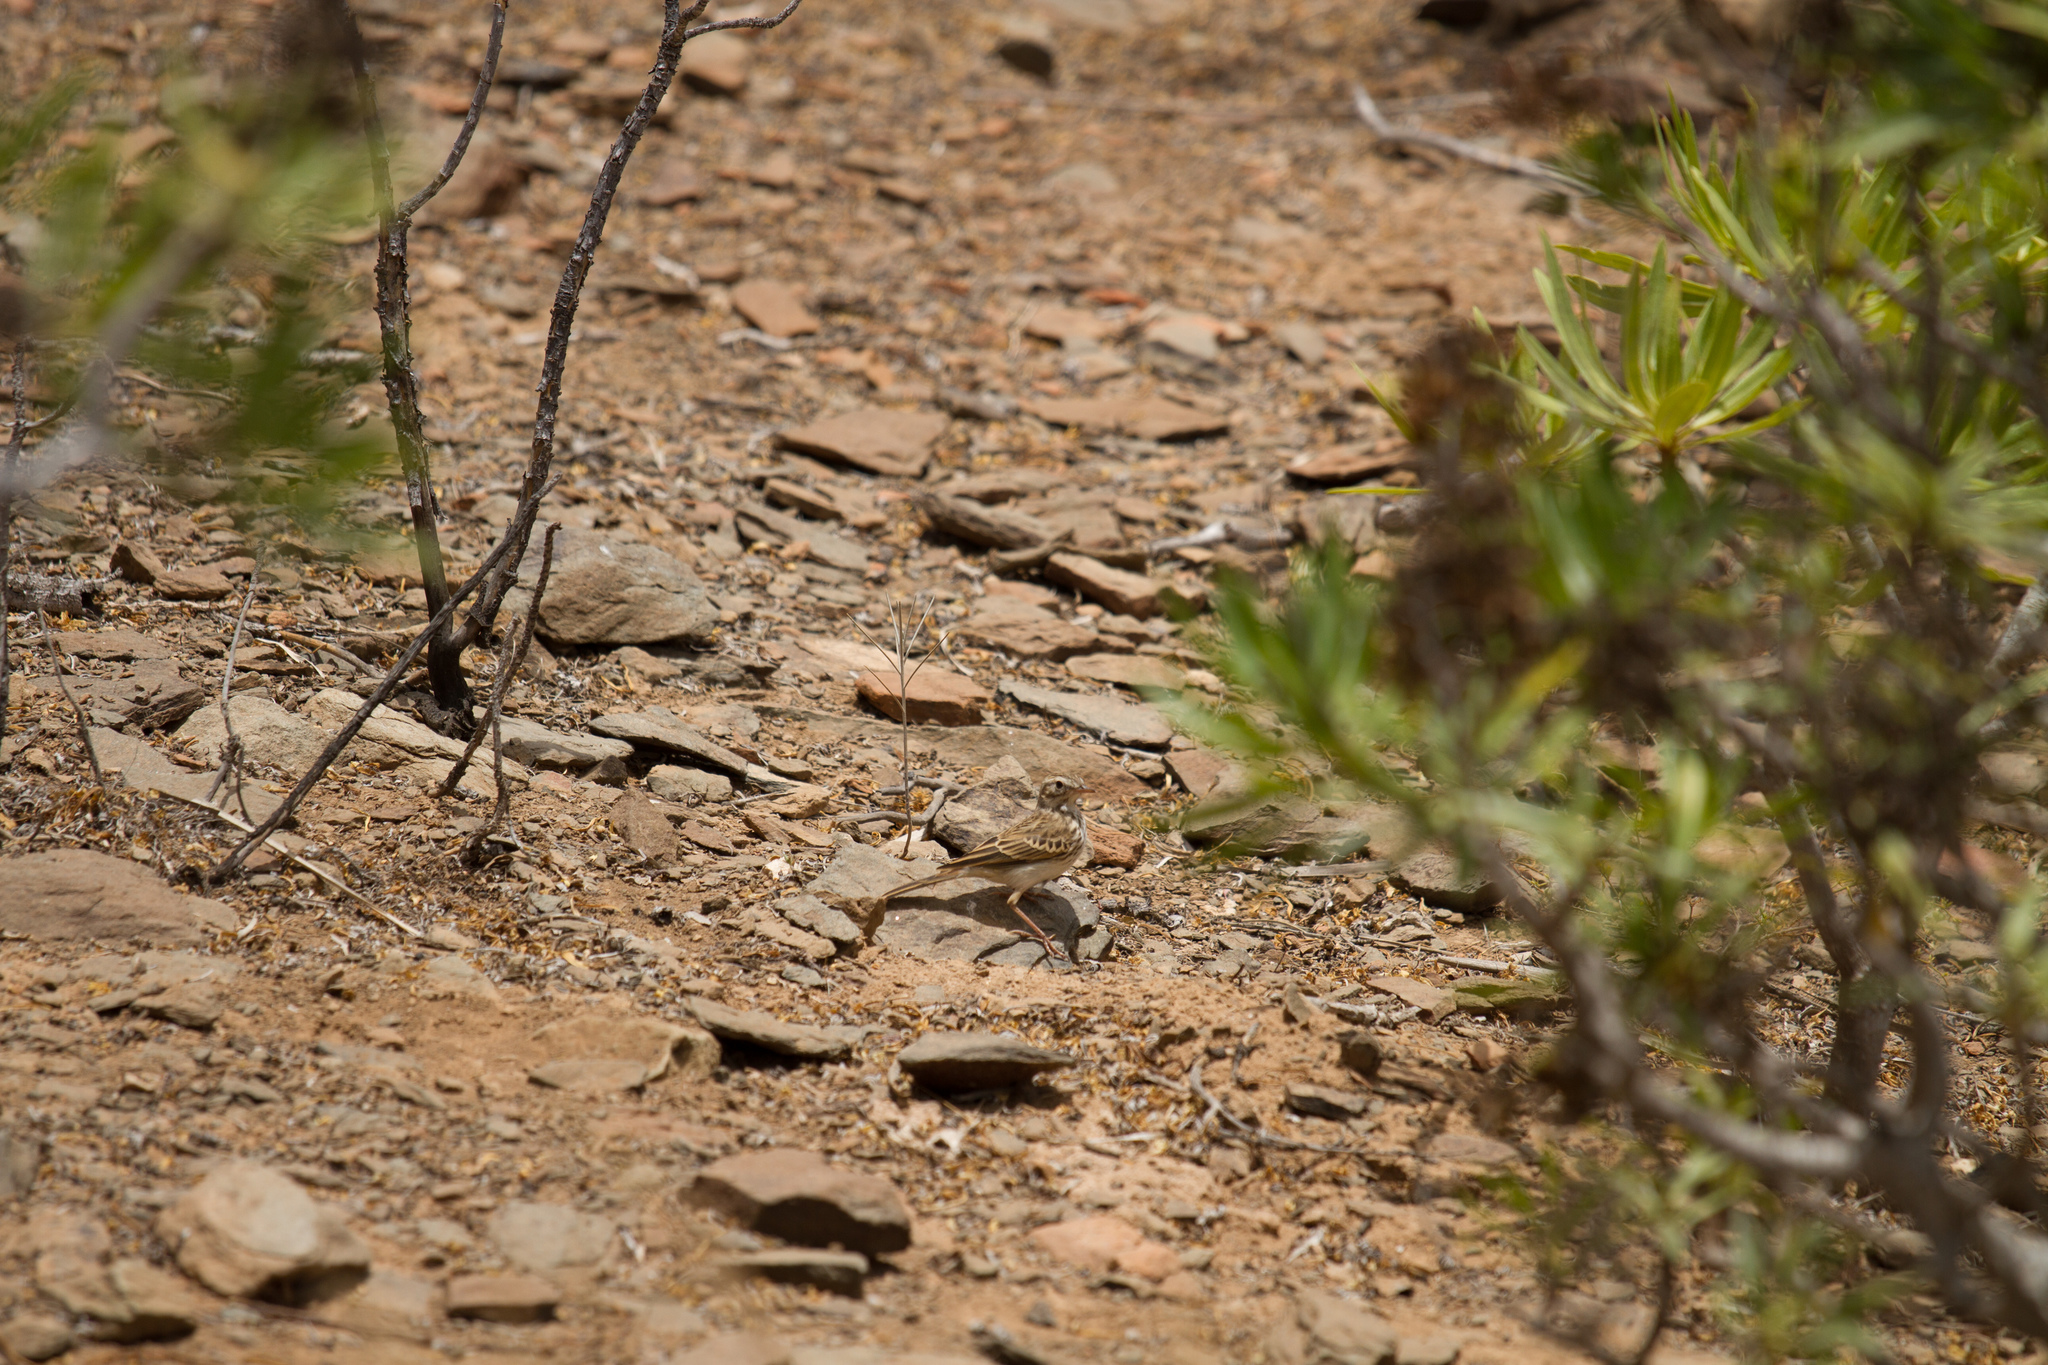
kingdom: Animalia
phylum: Chordata
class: Aves
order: Passeriformes
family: Motacillidae
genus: Anthus
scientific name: Anthus berthelotii
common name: Berthelot's pipit
